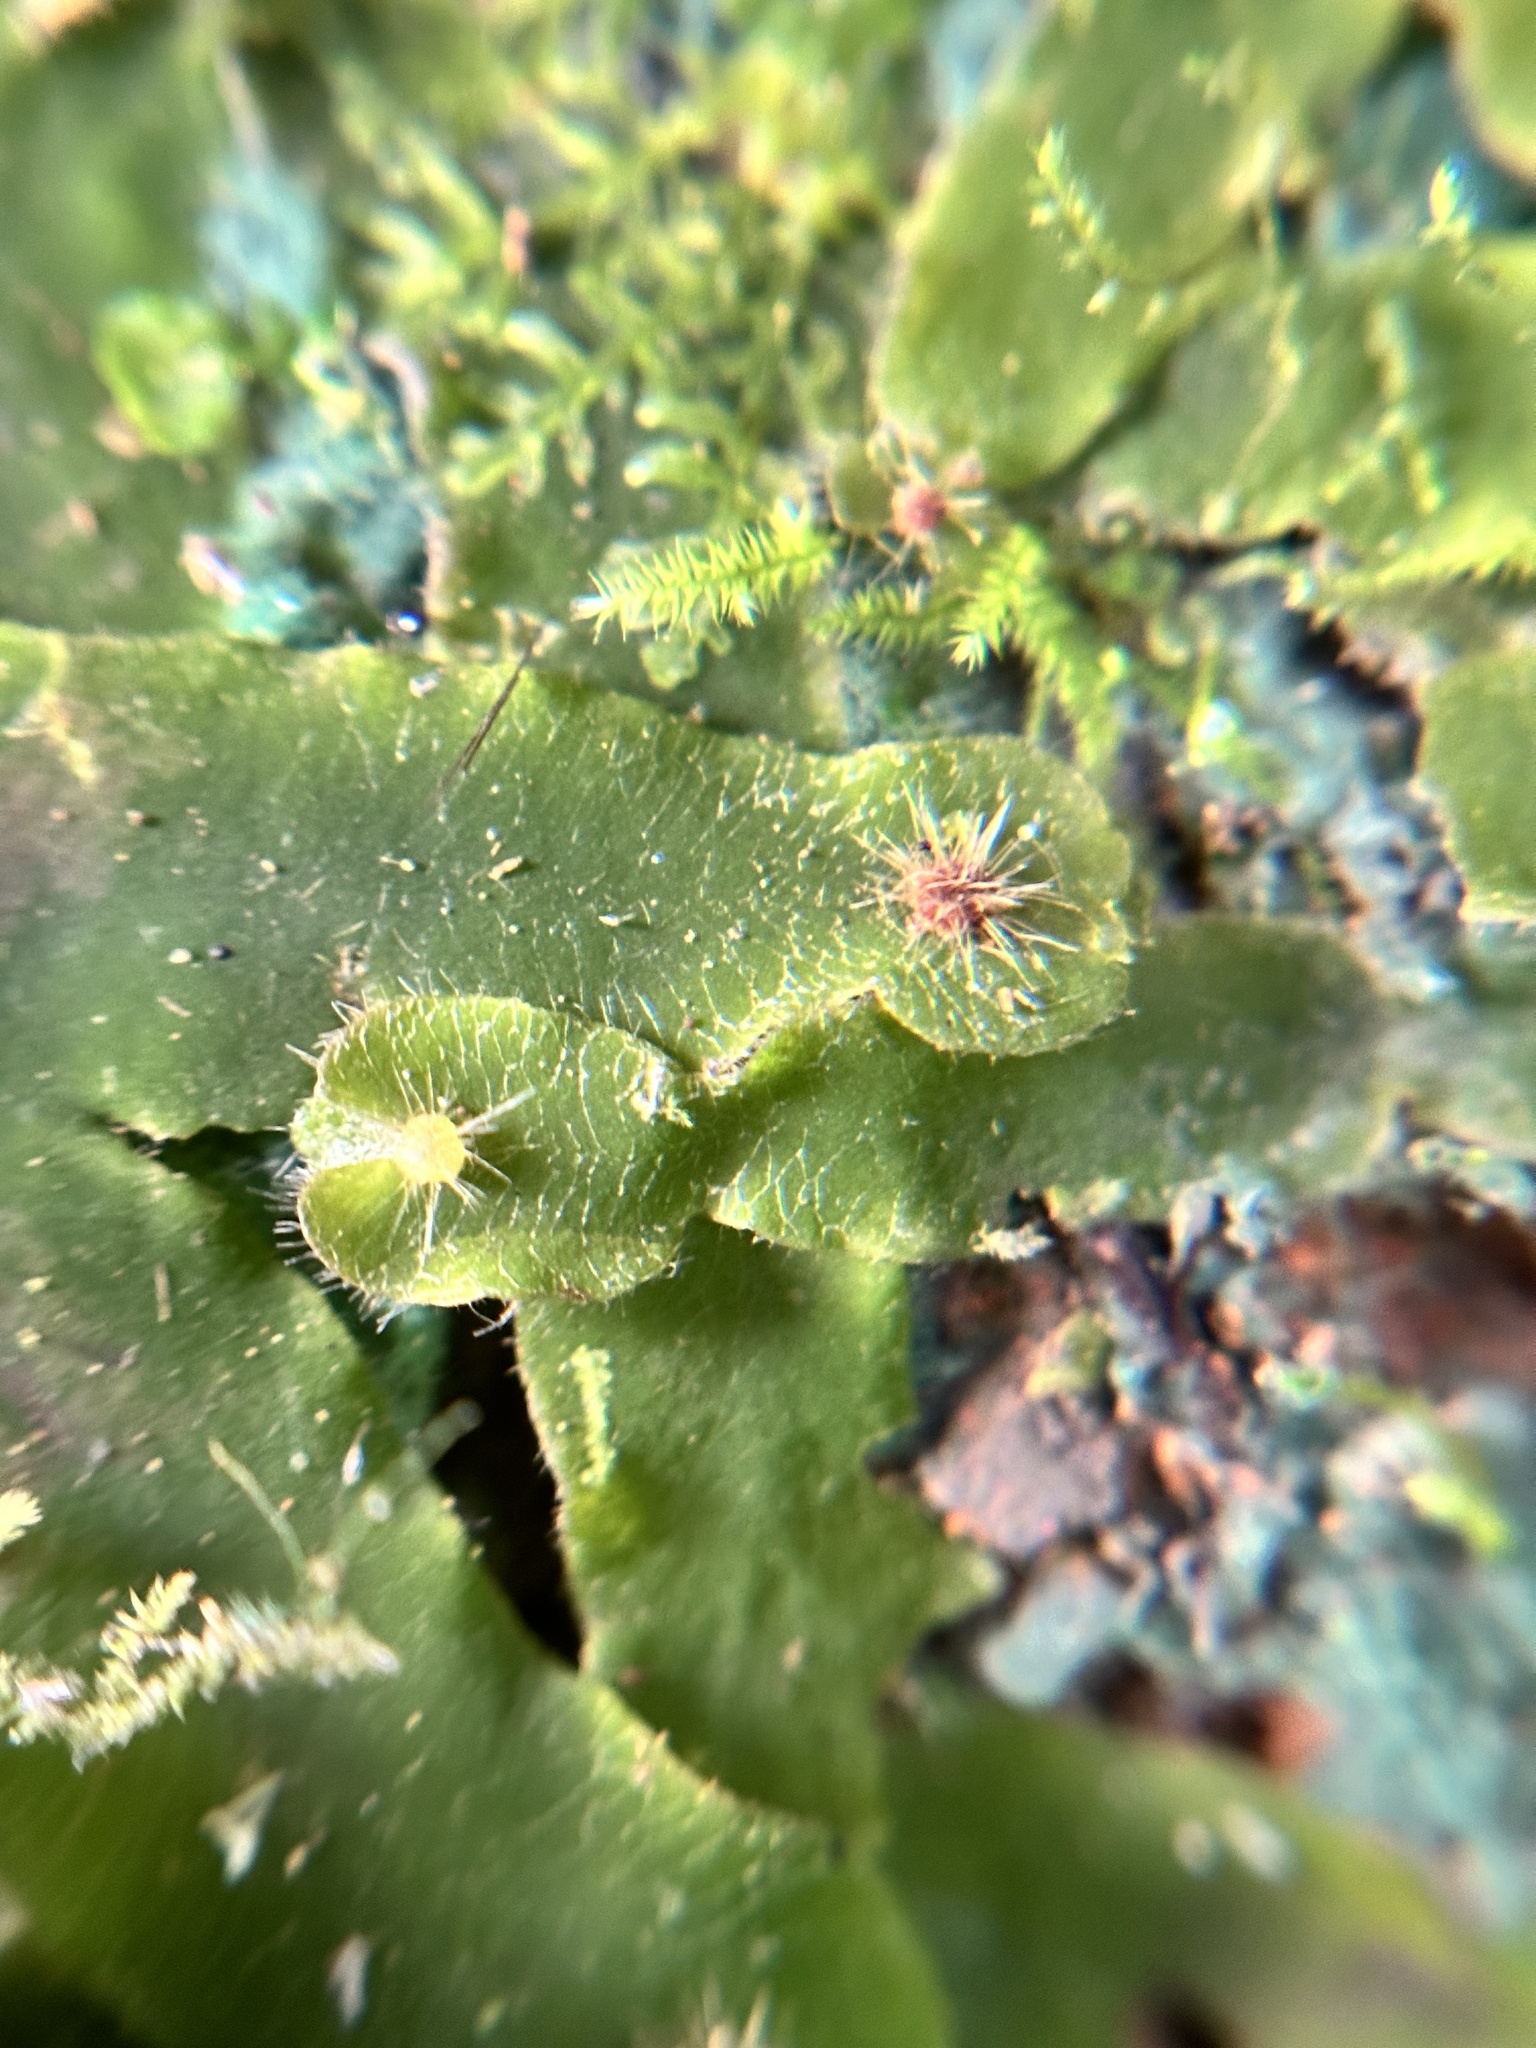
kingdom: Plantae
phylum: Marchantiophyta
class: Marchantiopsida
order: Marchantiales
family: Dumortieraceae
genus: Dumortiera
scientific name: Dumortiera hirsuta
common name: Dumortier's liverwort
